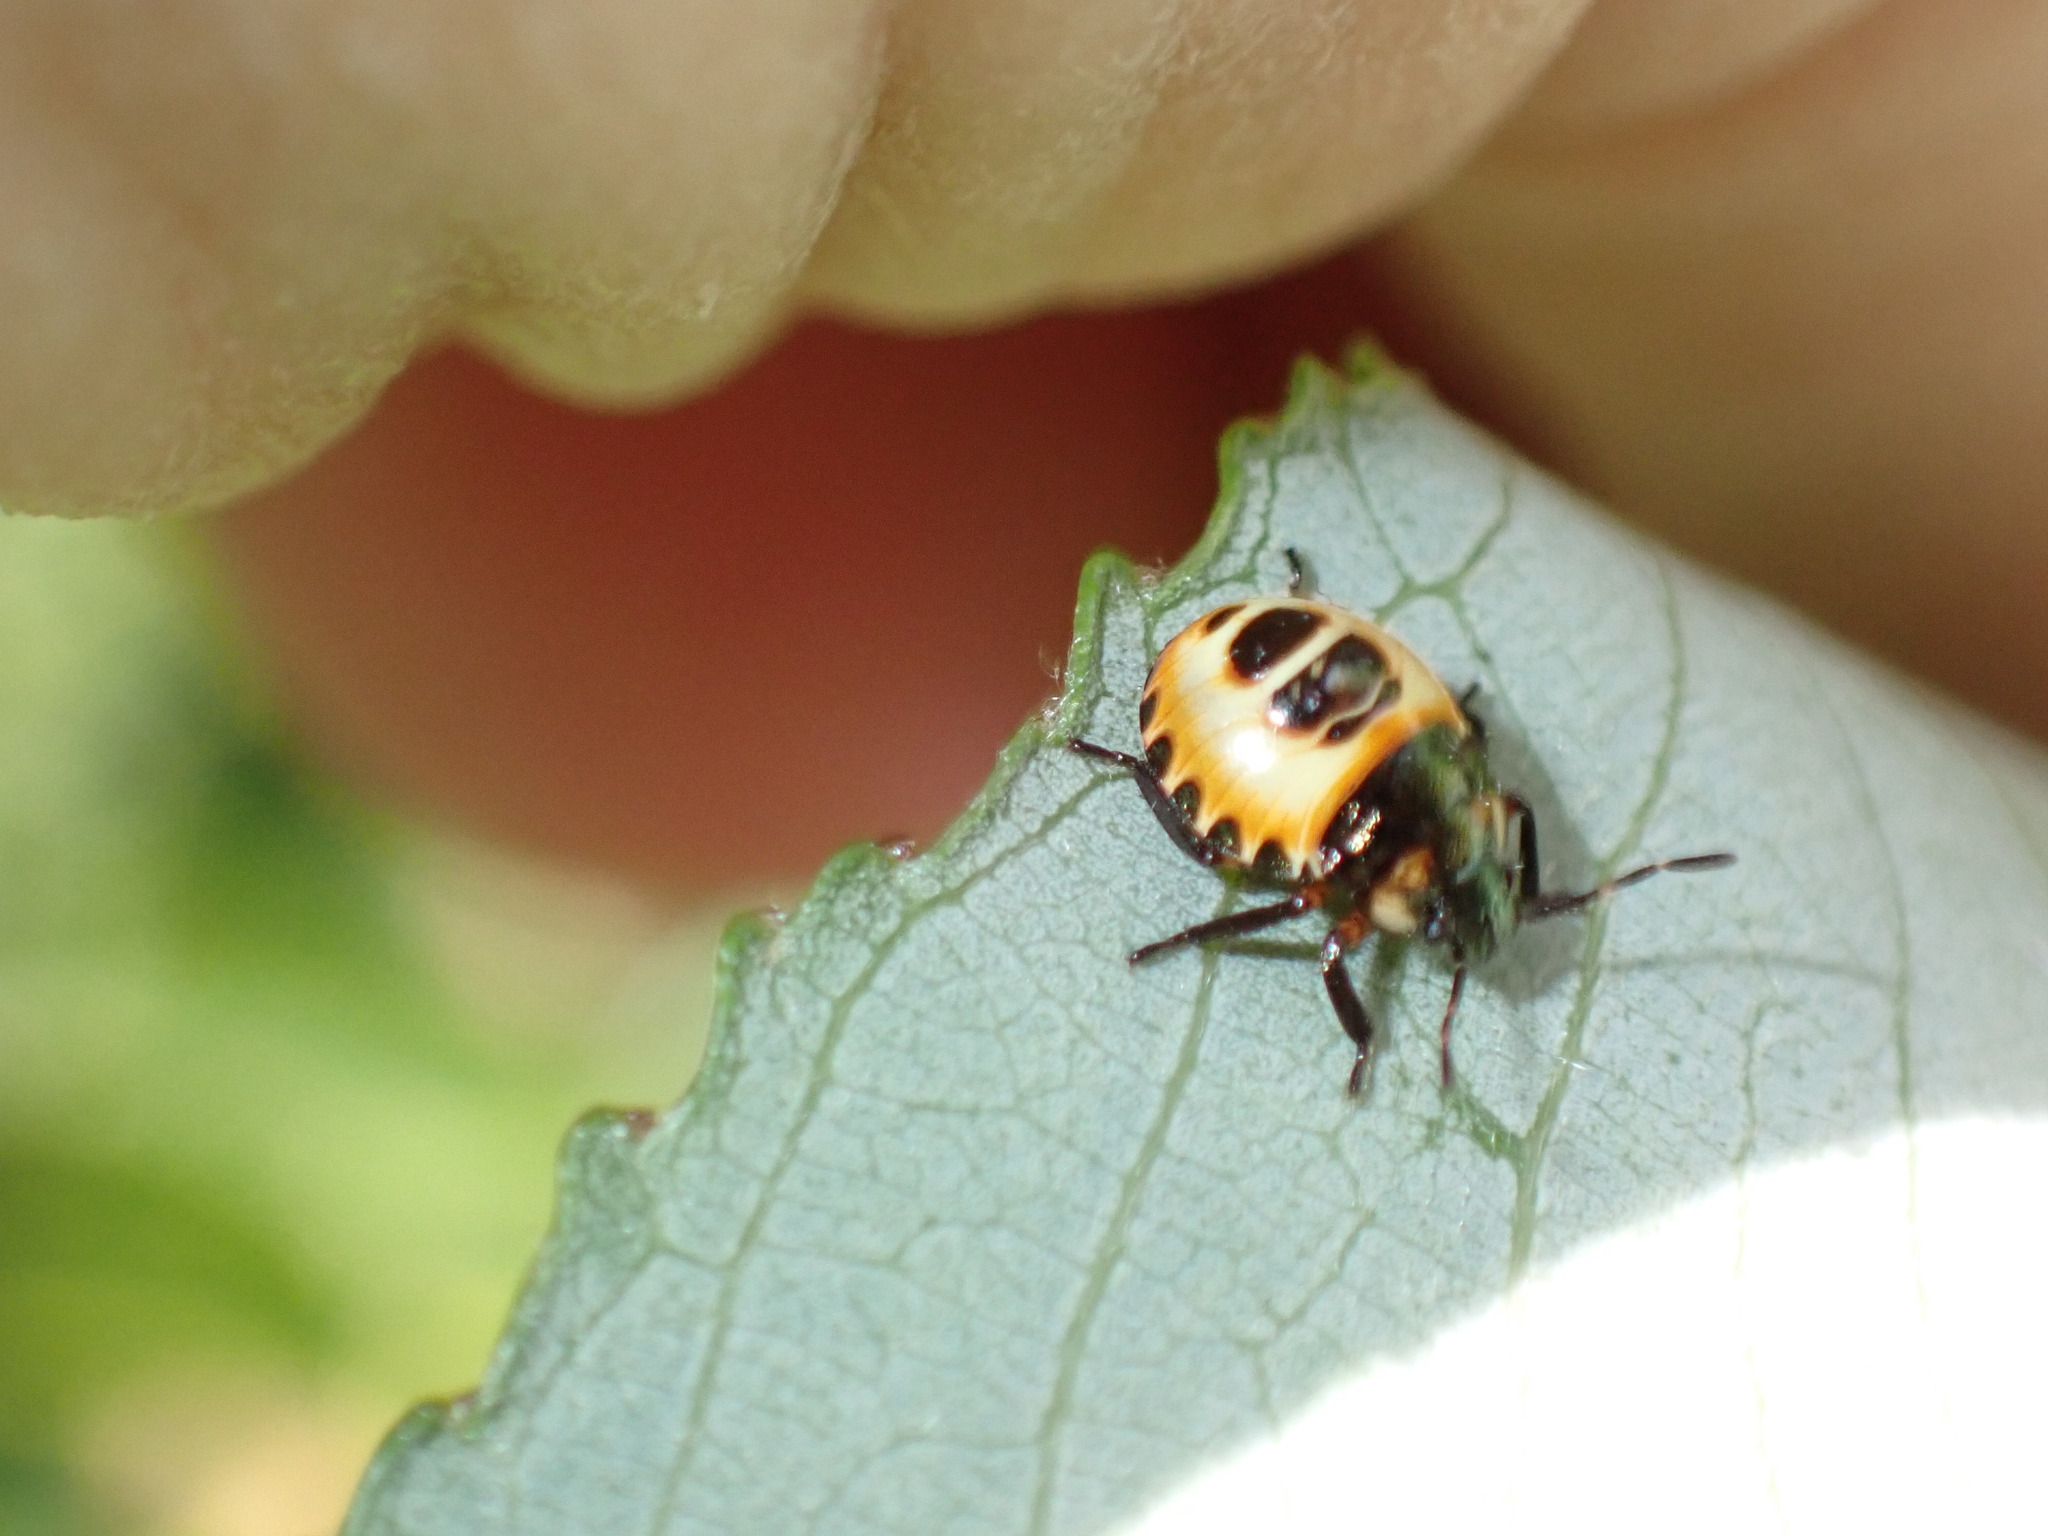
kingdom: Animalia
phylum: Arthropoda
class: Insecta
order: Hemiptera
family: Pentatomidae
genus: Troilus
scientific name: Troilus luridus
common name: Bronze shieldbug
